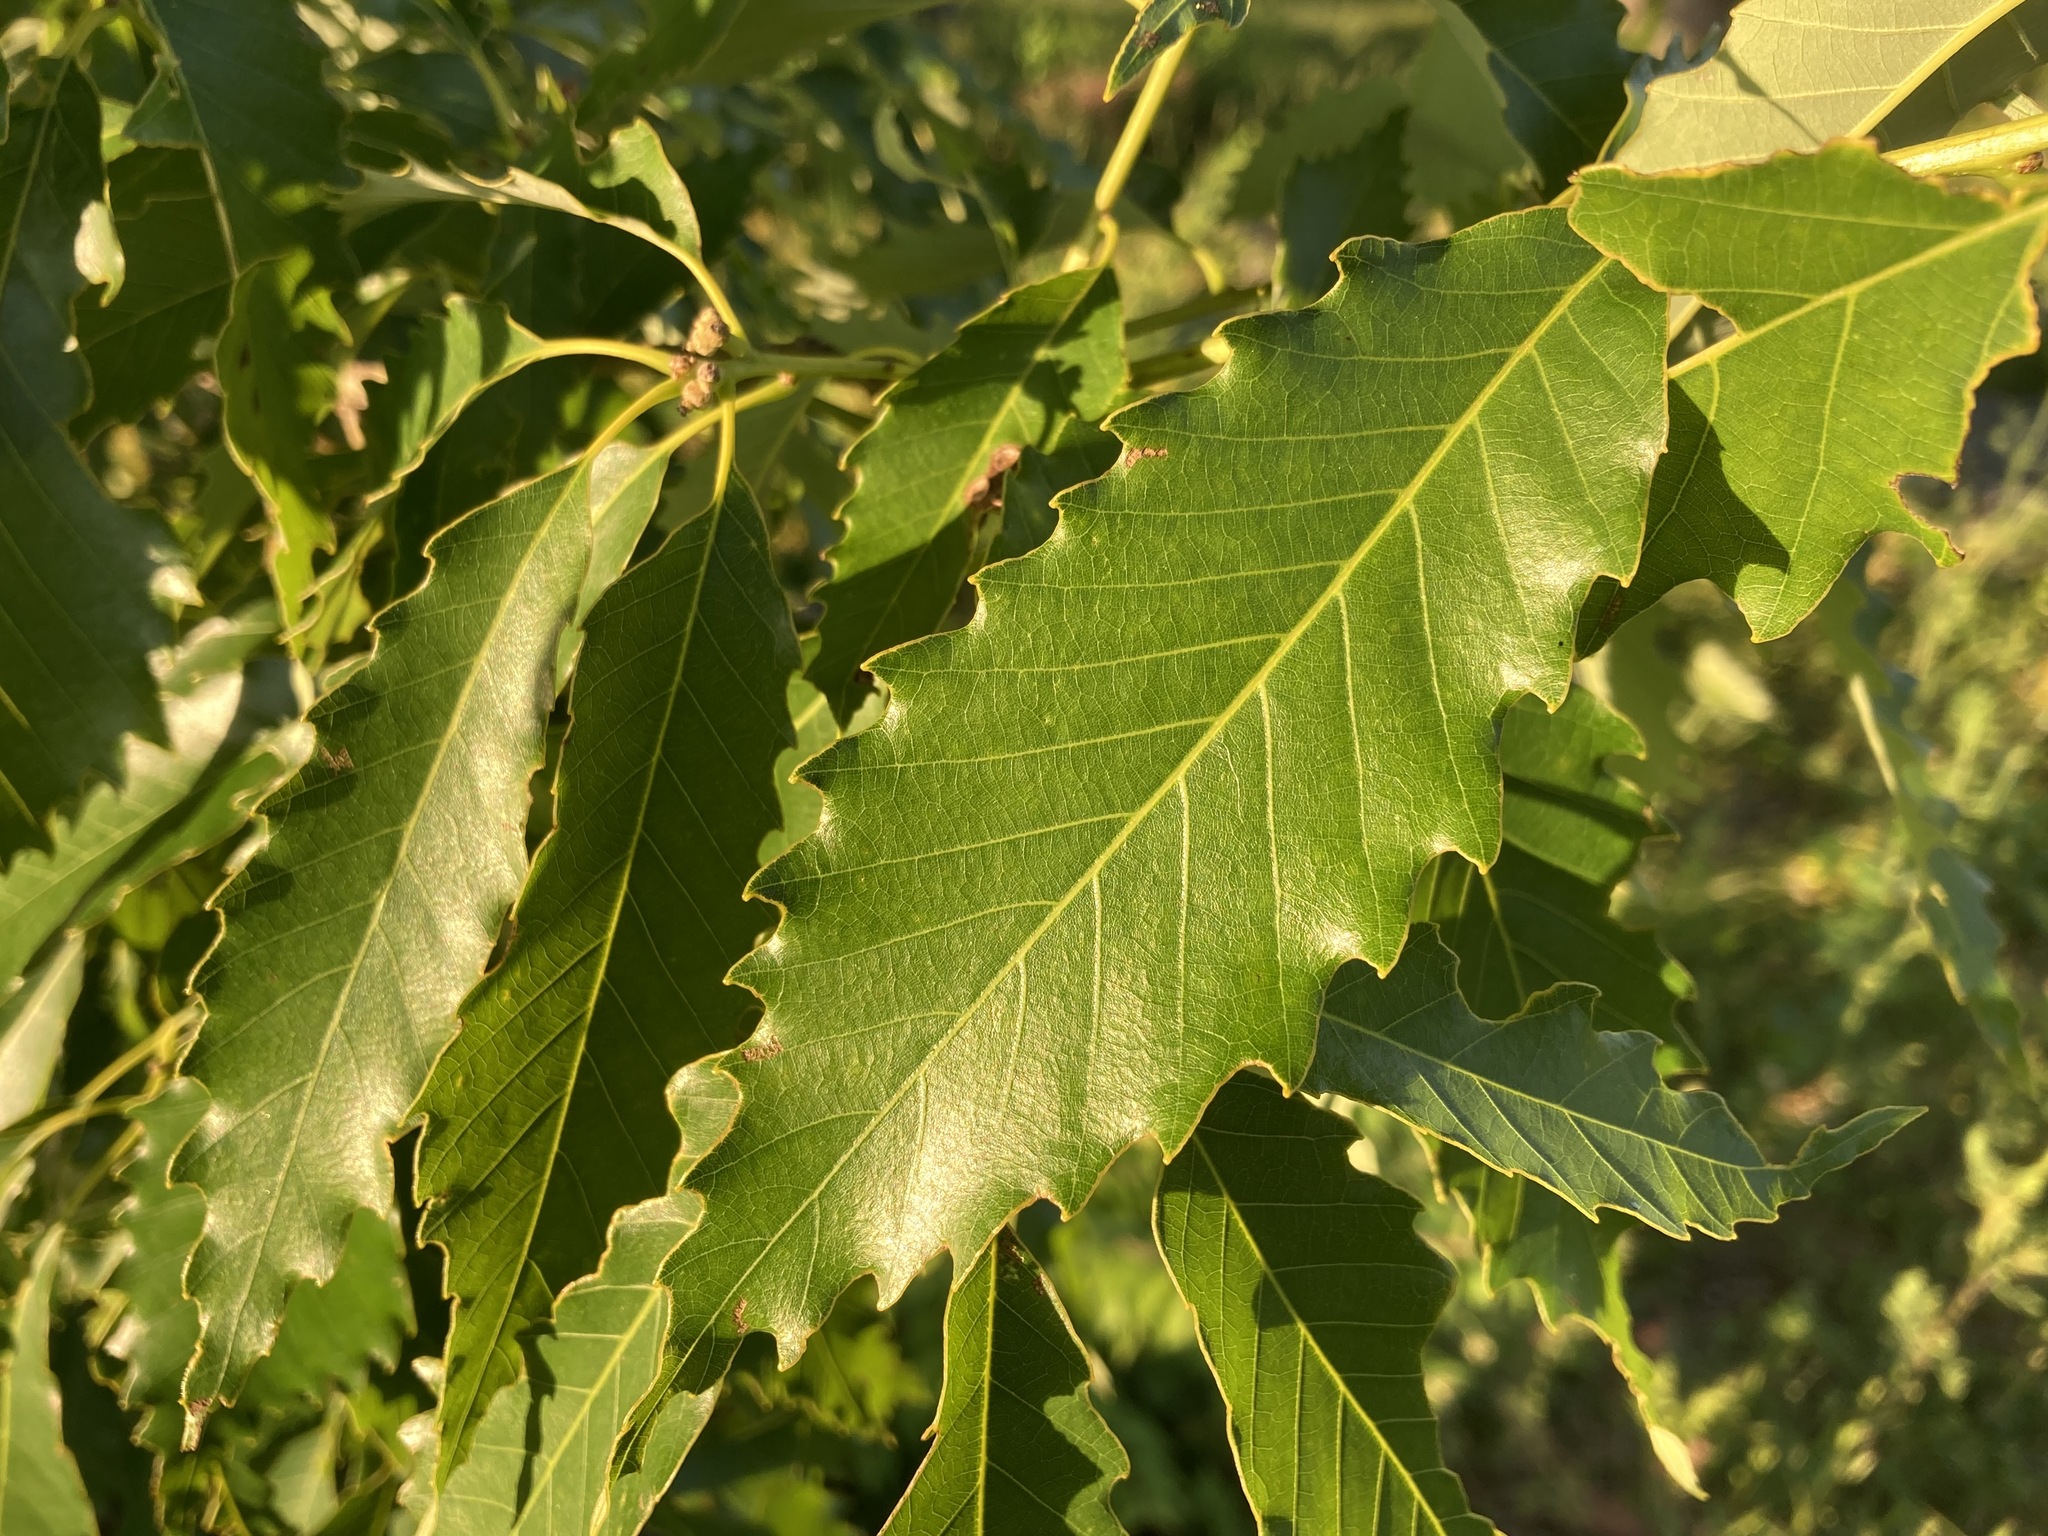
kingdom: Plantae
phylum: Tracheophyta
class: Magnoliopsida
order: Fagales
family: Fagaceae
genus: Quercus
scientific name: Quercus muehlenbergii
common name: Chinkapin oak
